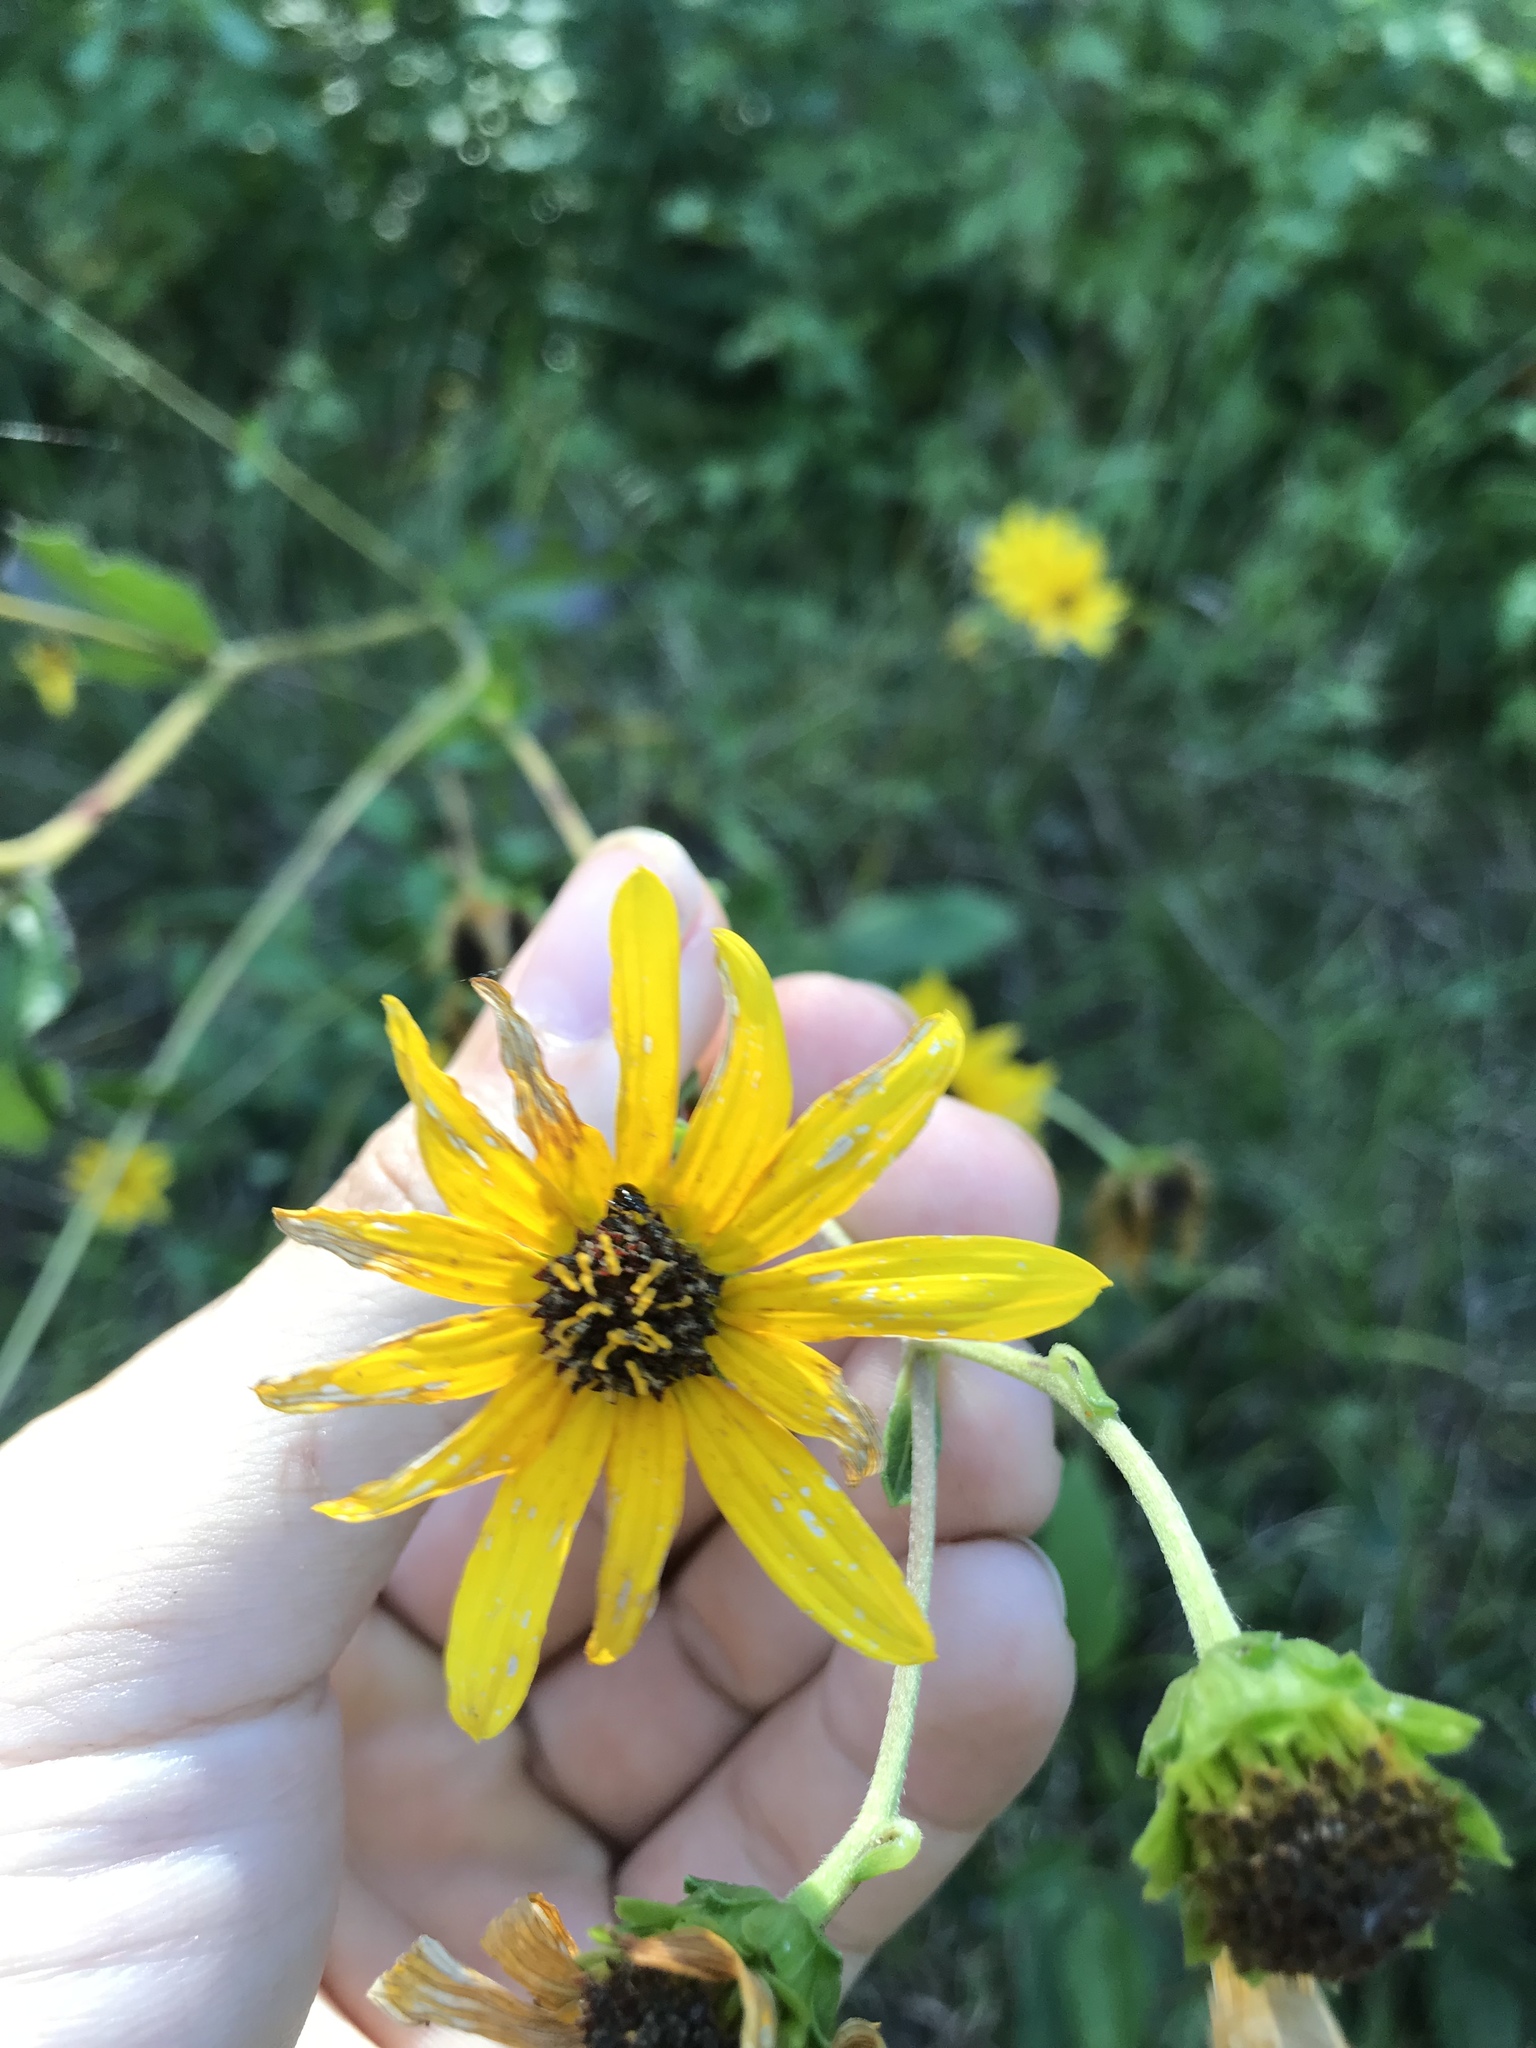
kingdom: Plantae
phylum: Tracheophyta
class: Magnoliopsida
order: Asterales
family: Asteraceae
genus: Helianthus
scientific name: Helianthus atrorubens
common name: Dark-eyed sunflower
